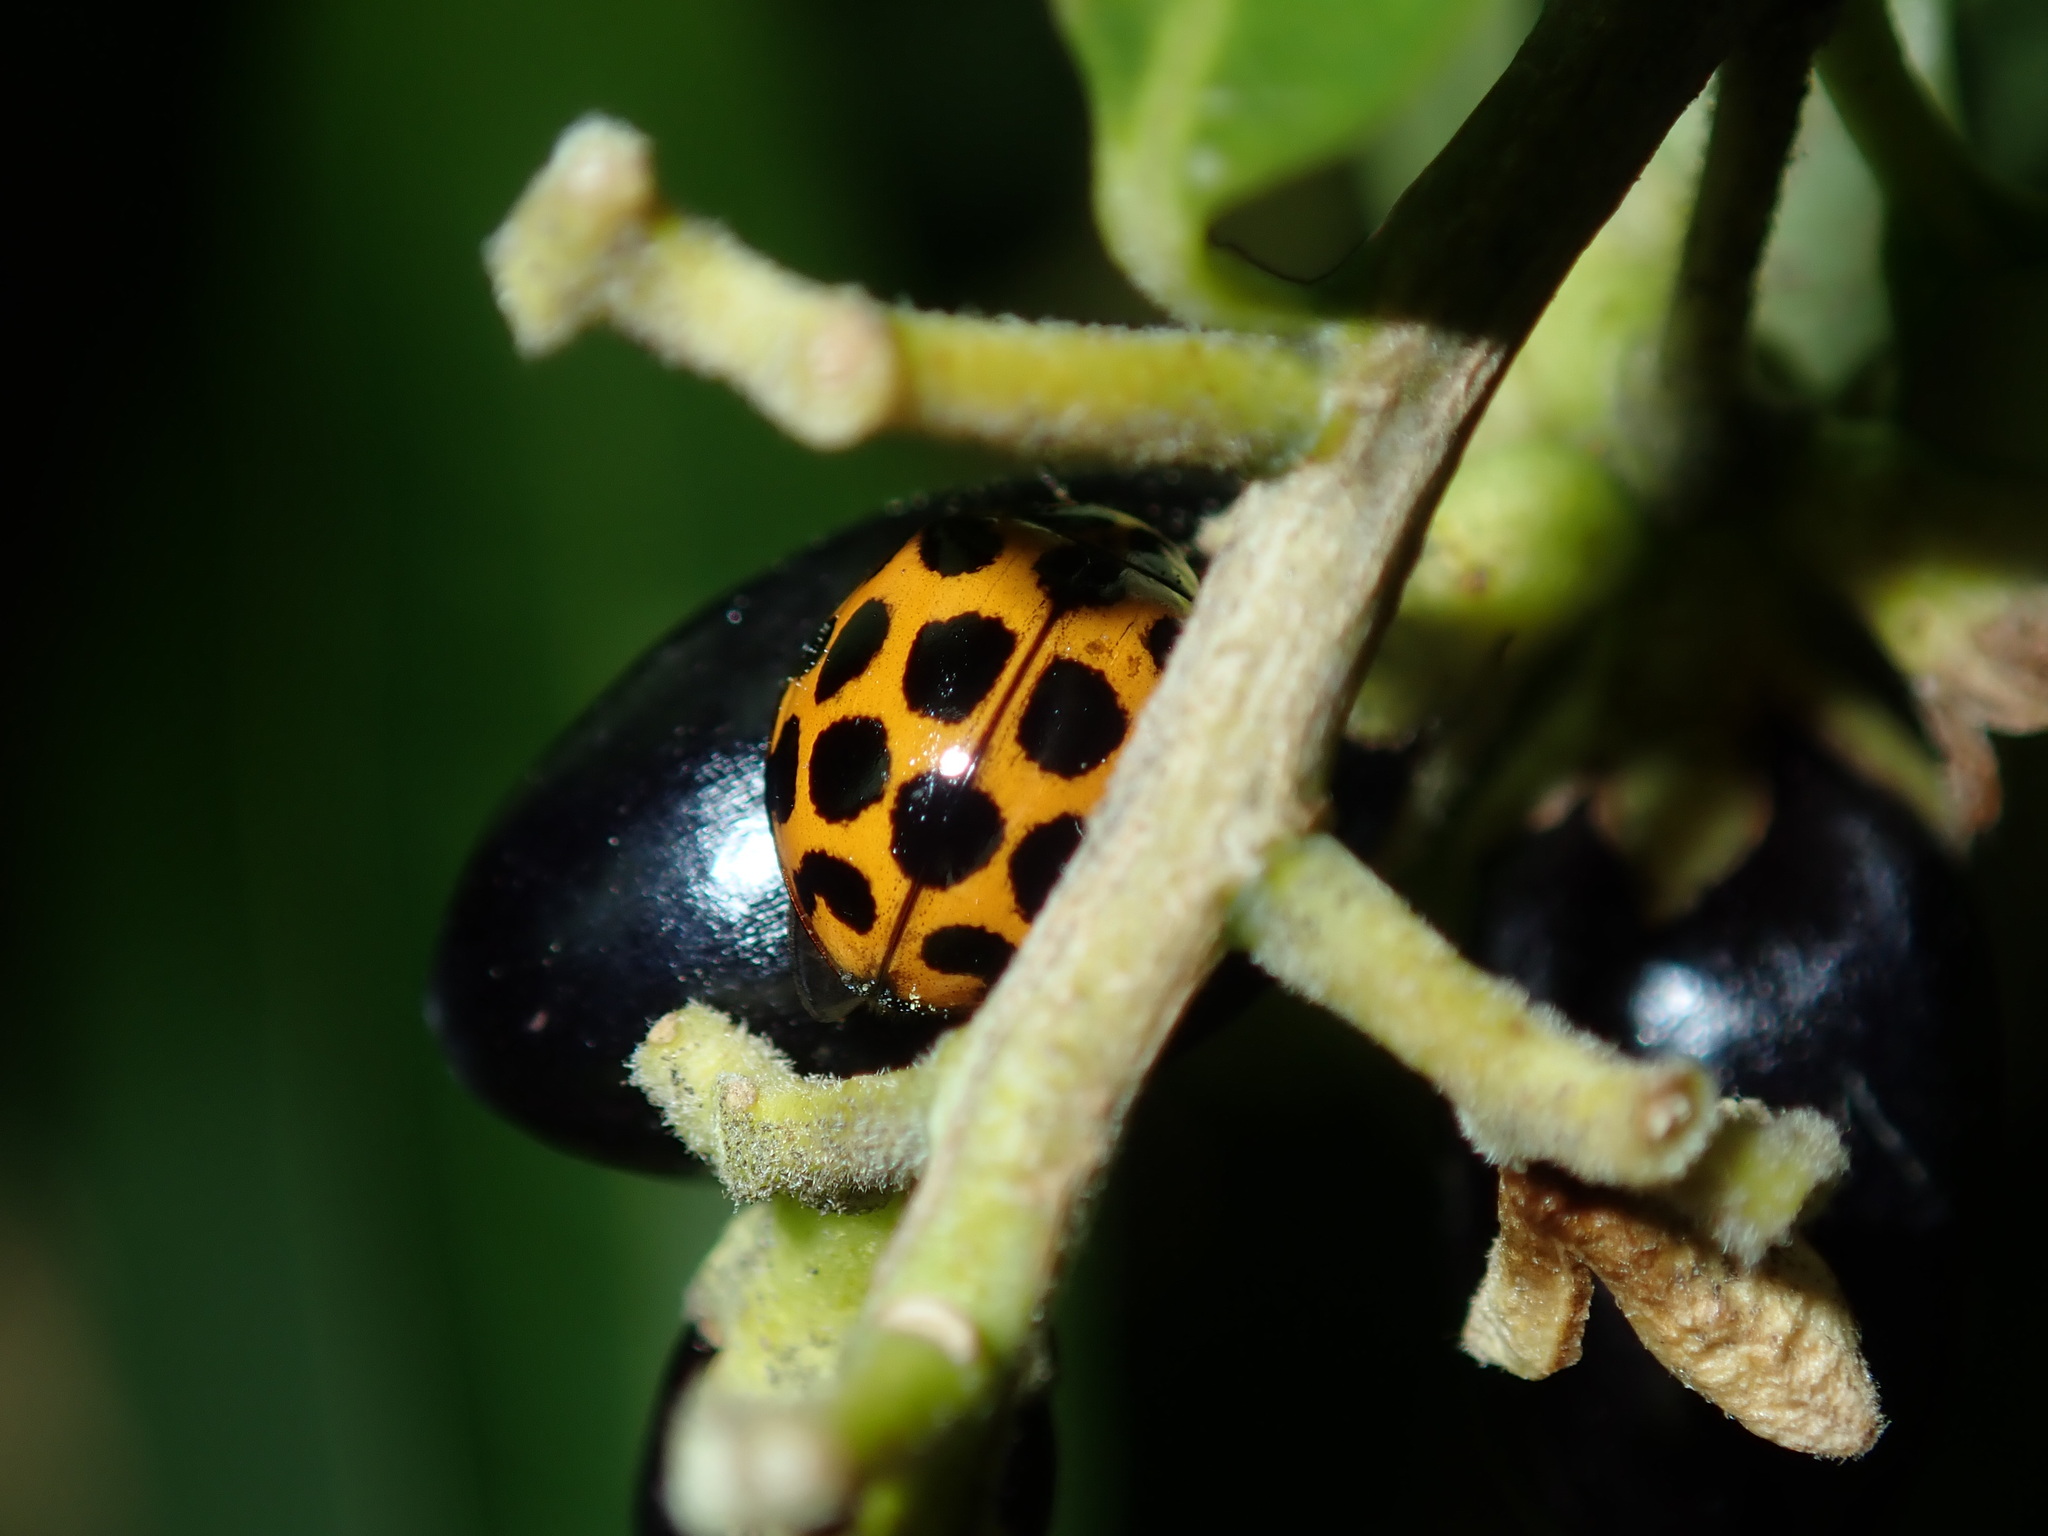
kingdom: Animalia
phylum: Arthropoda
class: Insecta
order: Coleoptera
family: Coccinellidae
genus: Harmonia
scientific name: Harmonia conformis
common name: Common spotted ladybird beetle
